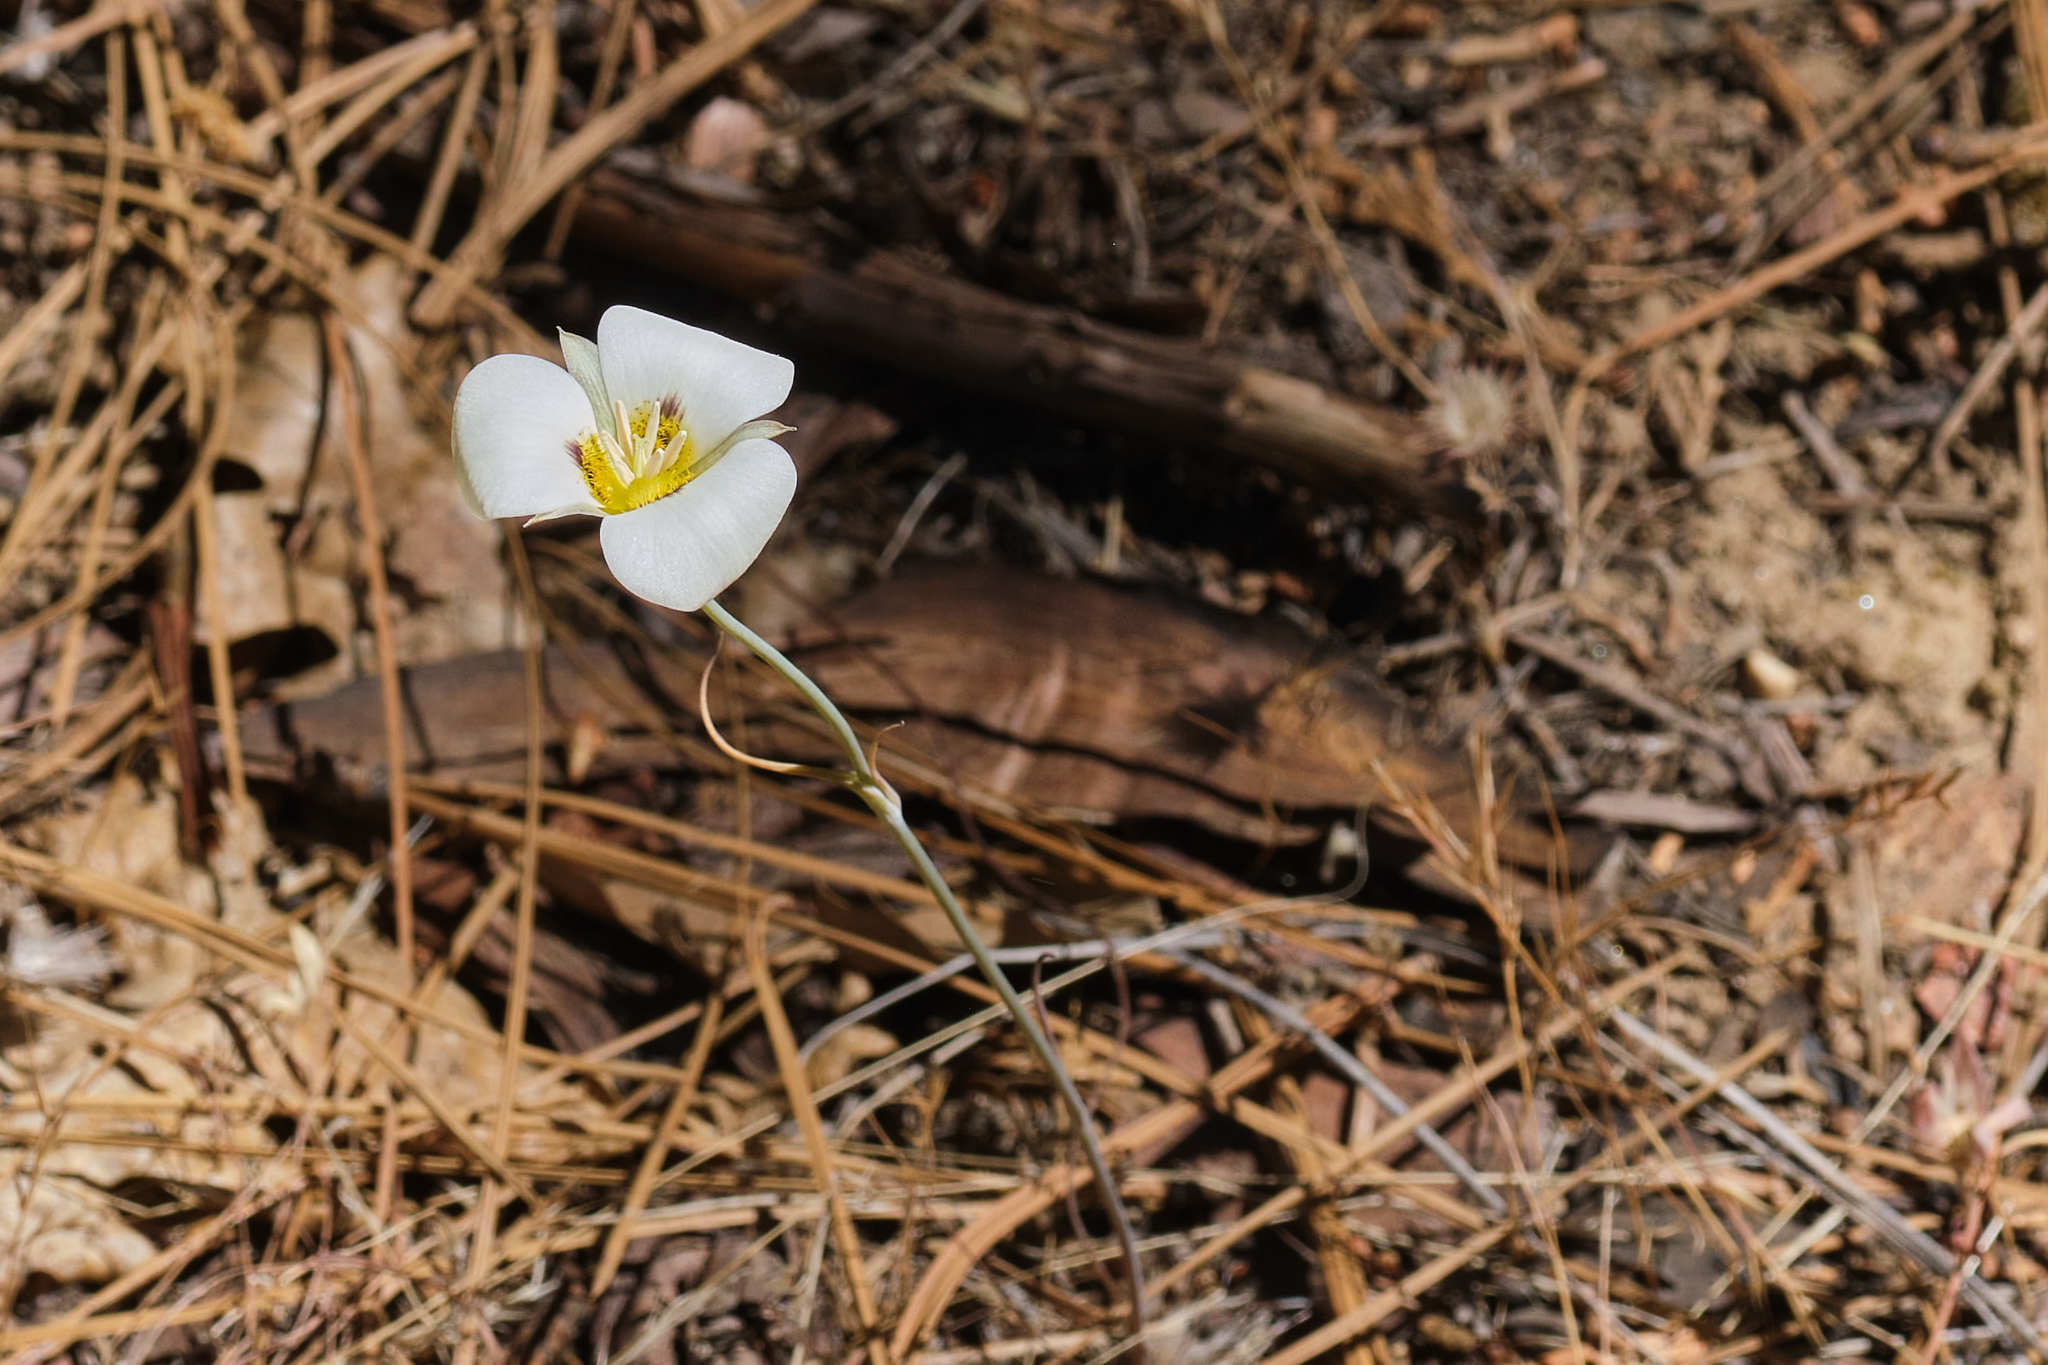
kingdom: Plantae
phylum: Tracheophyta
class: Liliopsida
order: Liliales
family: Liliaceae
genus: Calochortus
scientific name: Calochortus leichtlinii
